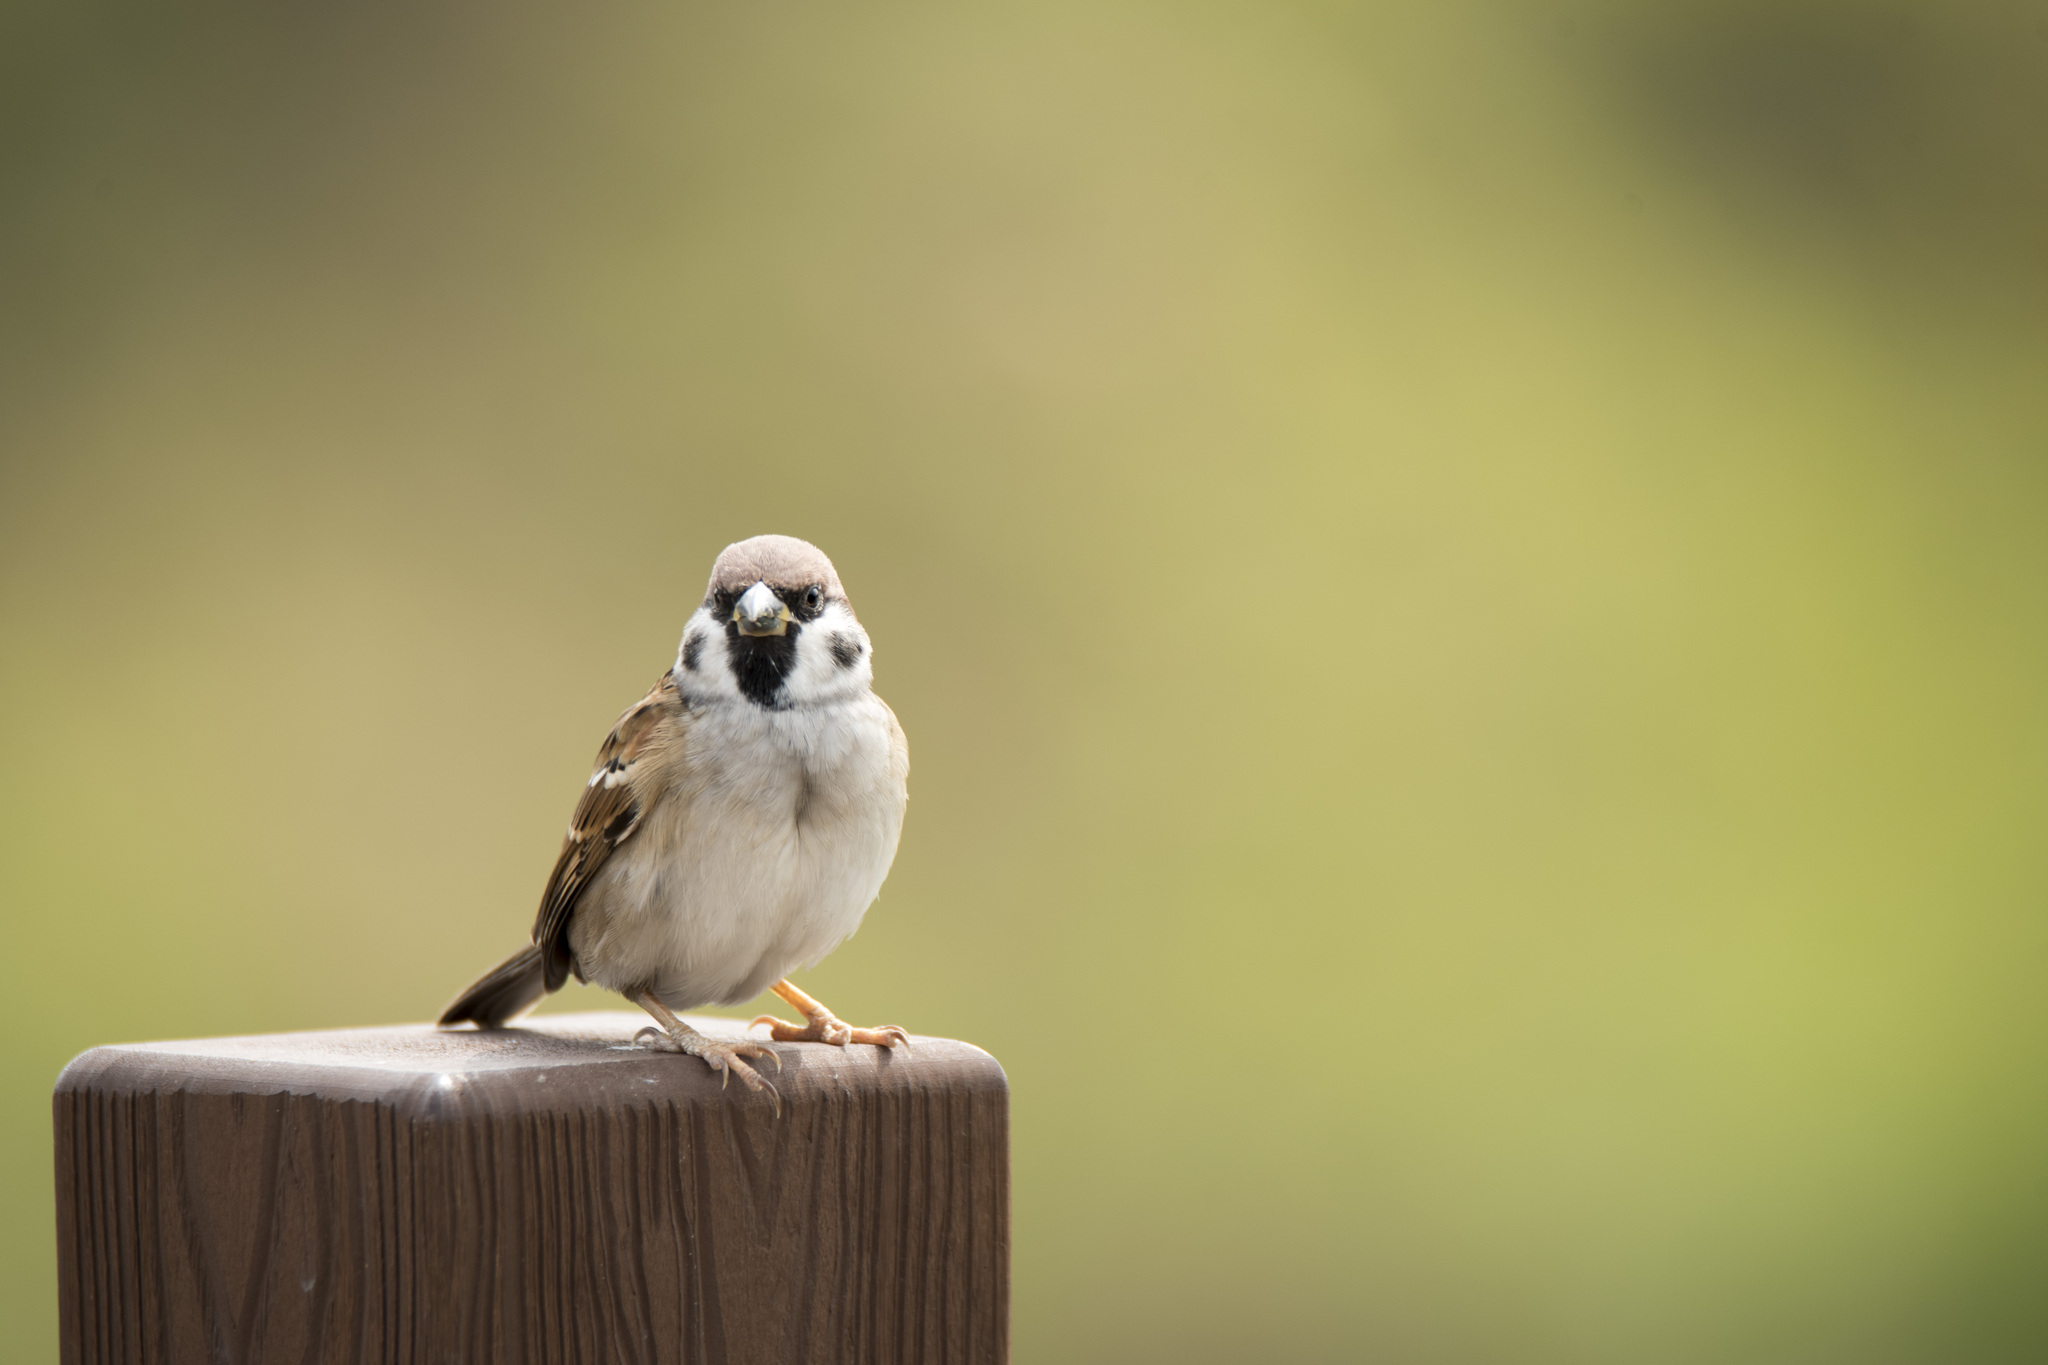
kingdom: Animalia
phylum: Chordata
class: Aves
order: Passeriformes
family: Passeridae
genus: Passer
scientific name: Passer montanus
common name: Eurasian tree sparrow
